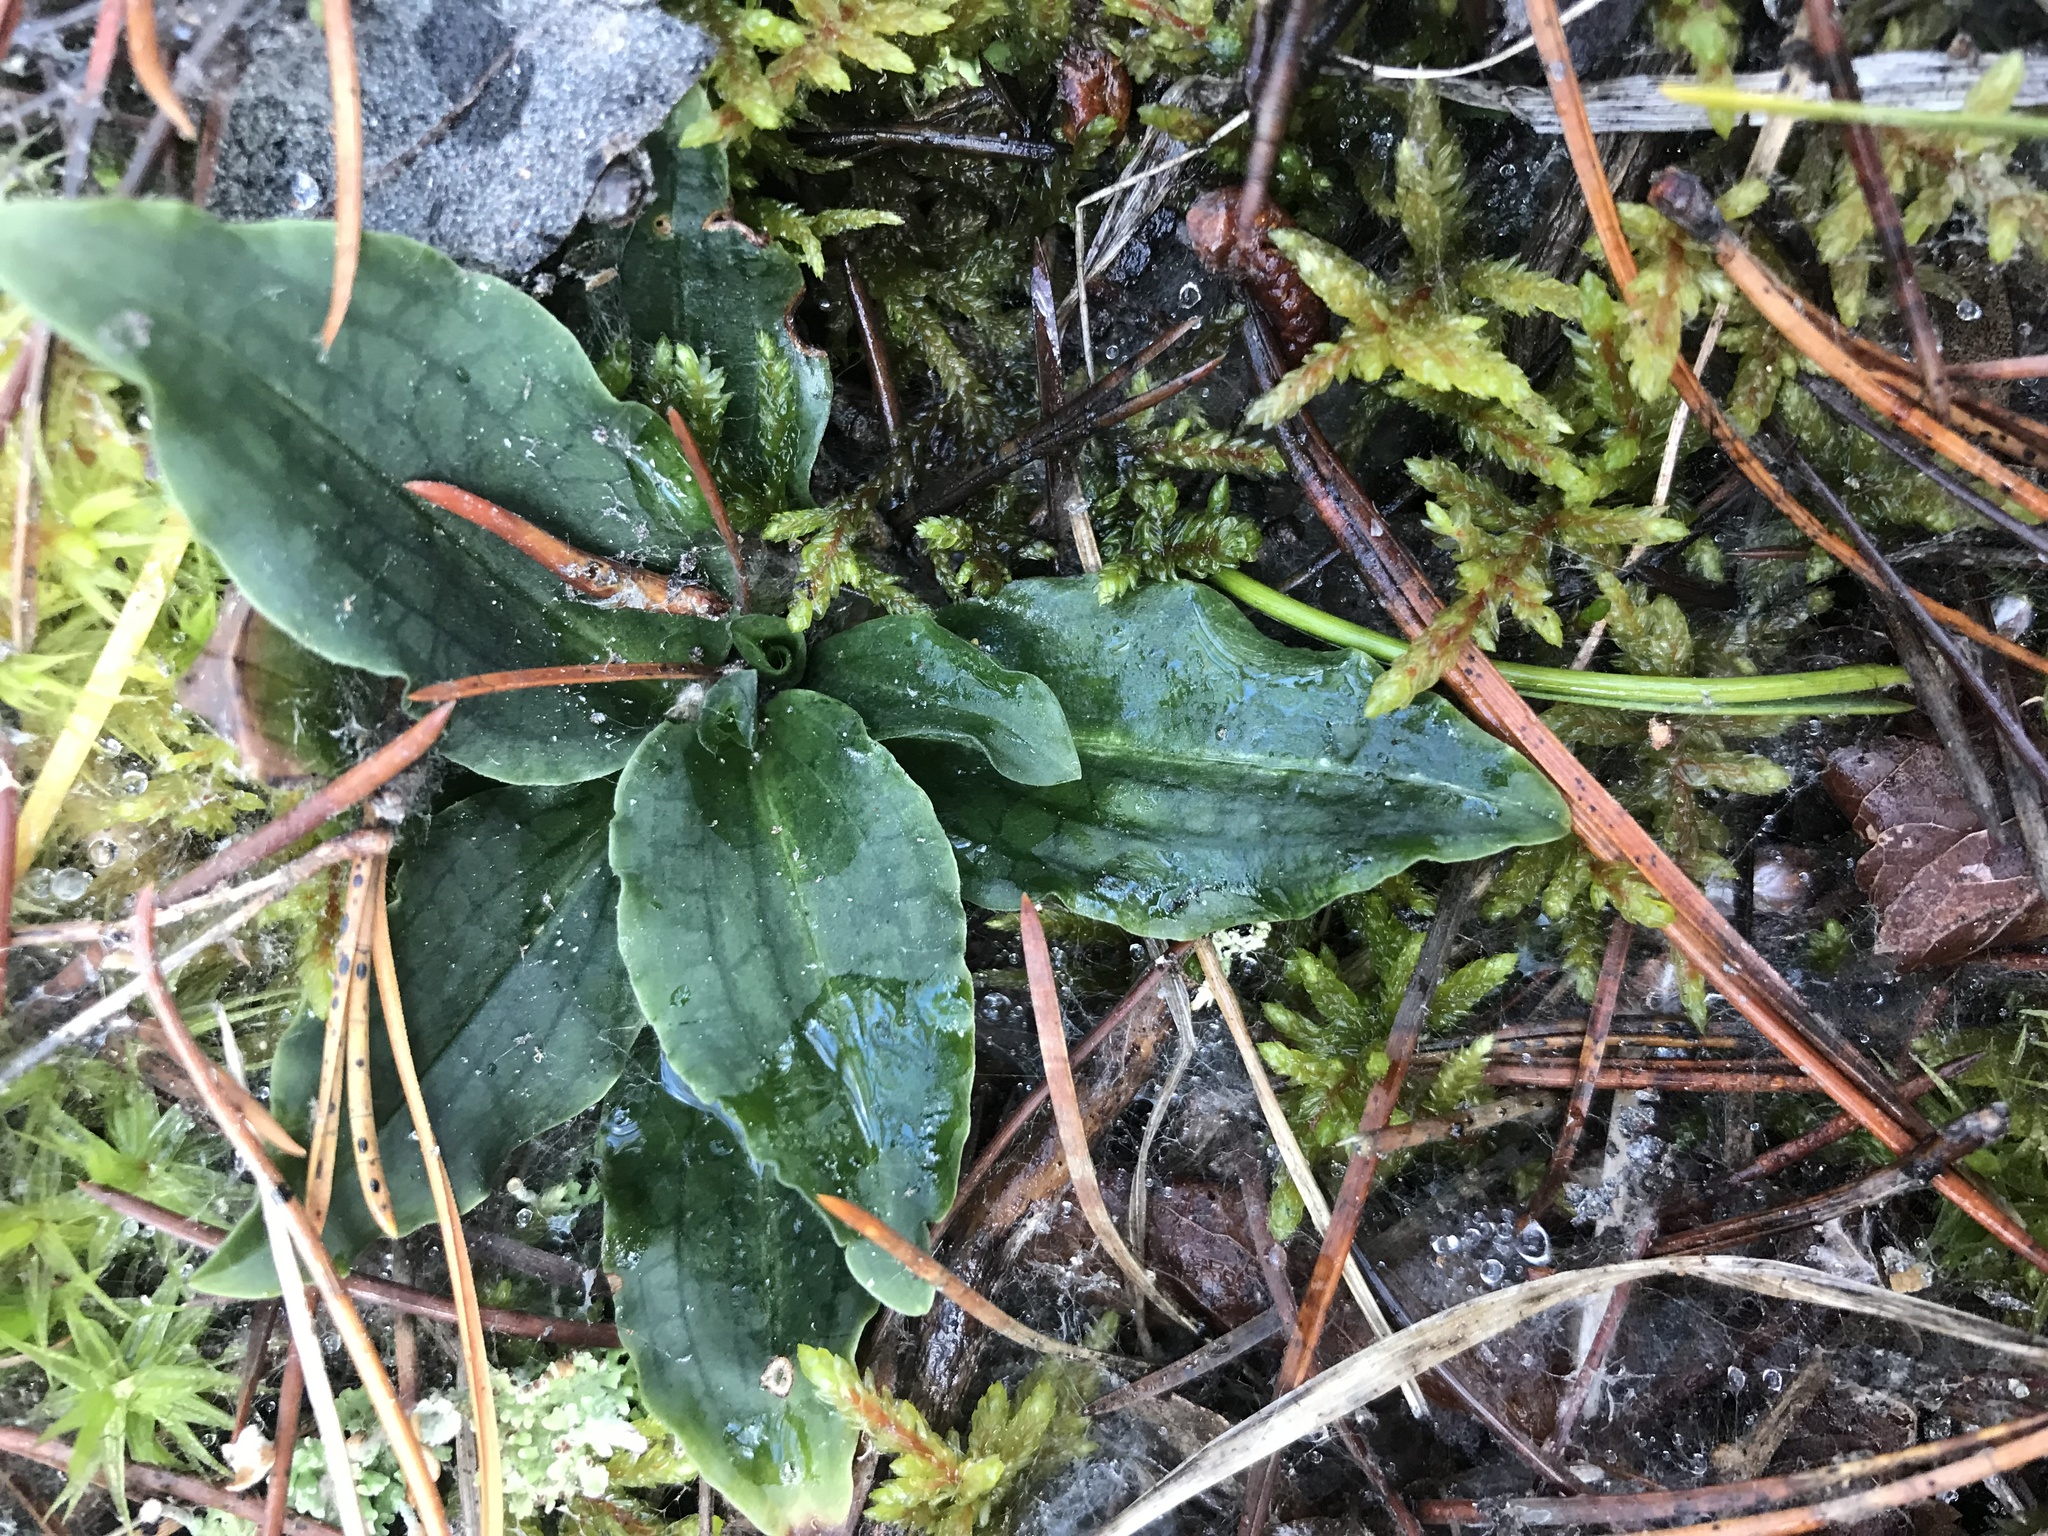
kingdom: Plantae
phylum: Tracheophyta
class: Liliopsida
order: Asparagales
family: Orchidaceae
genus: Goodyera
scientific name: Goodyera oblongifolia
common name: Giant rattlesnake-plantain
